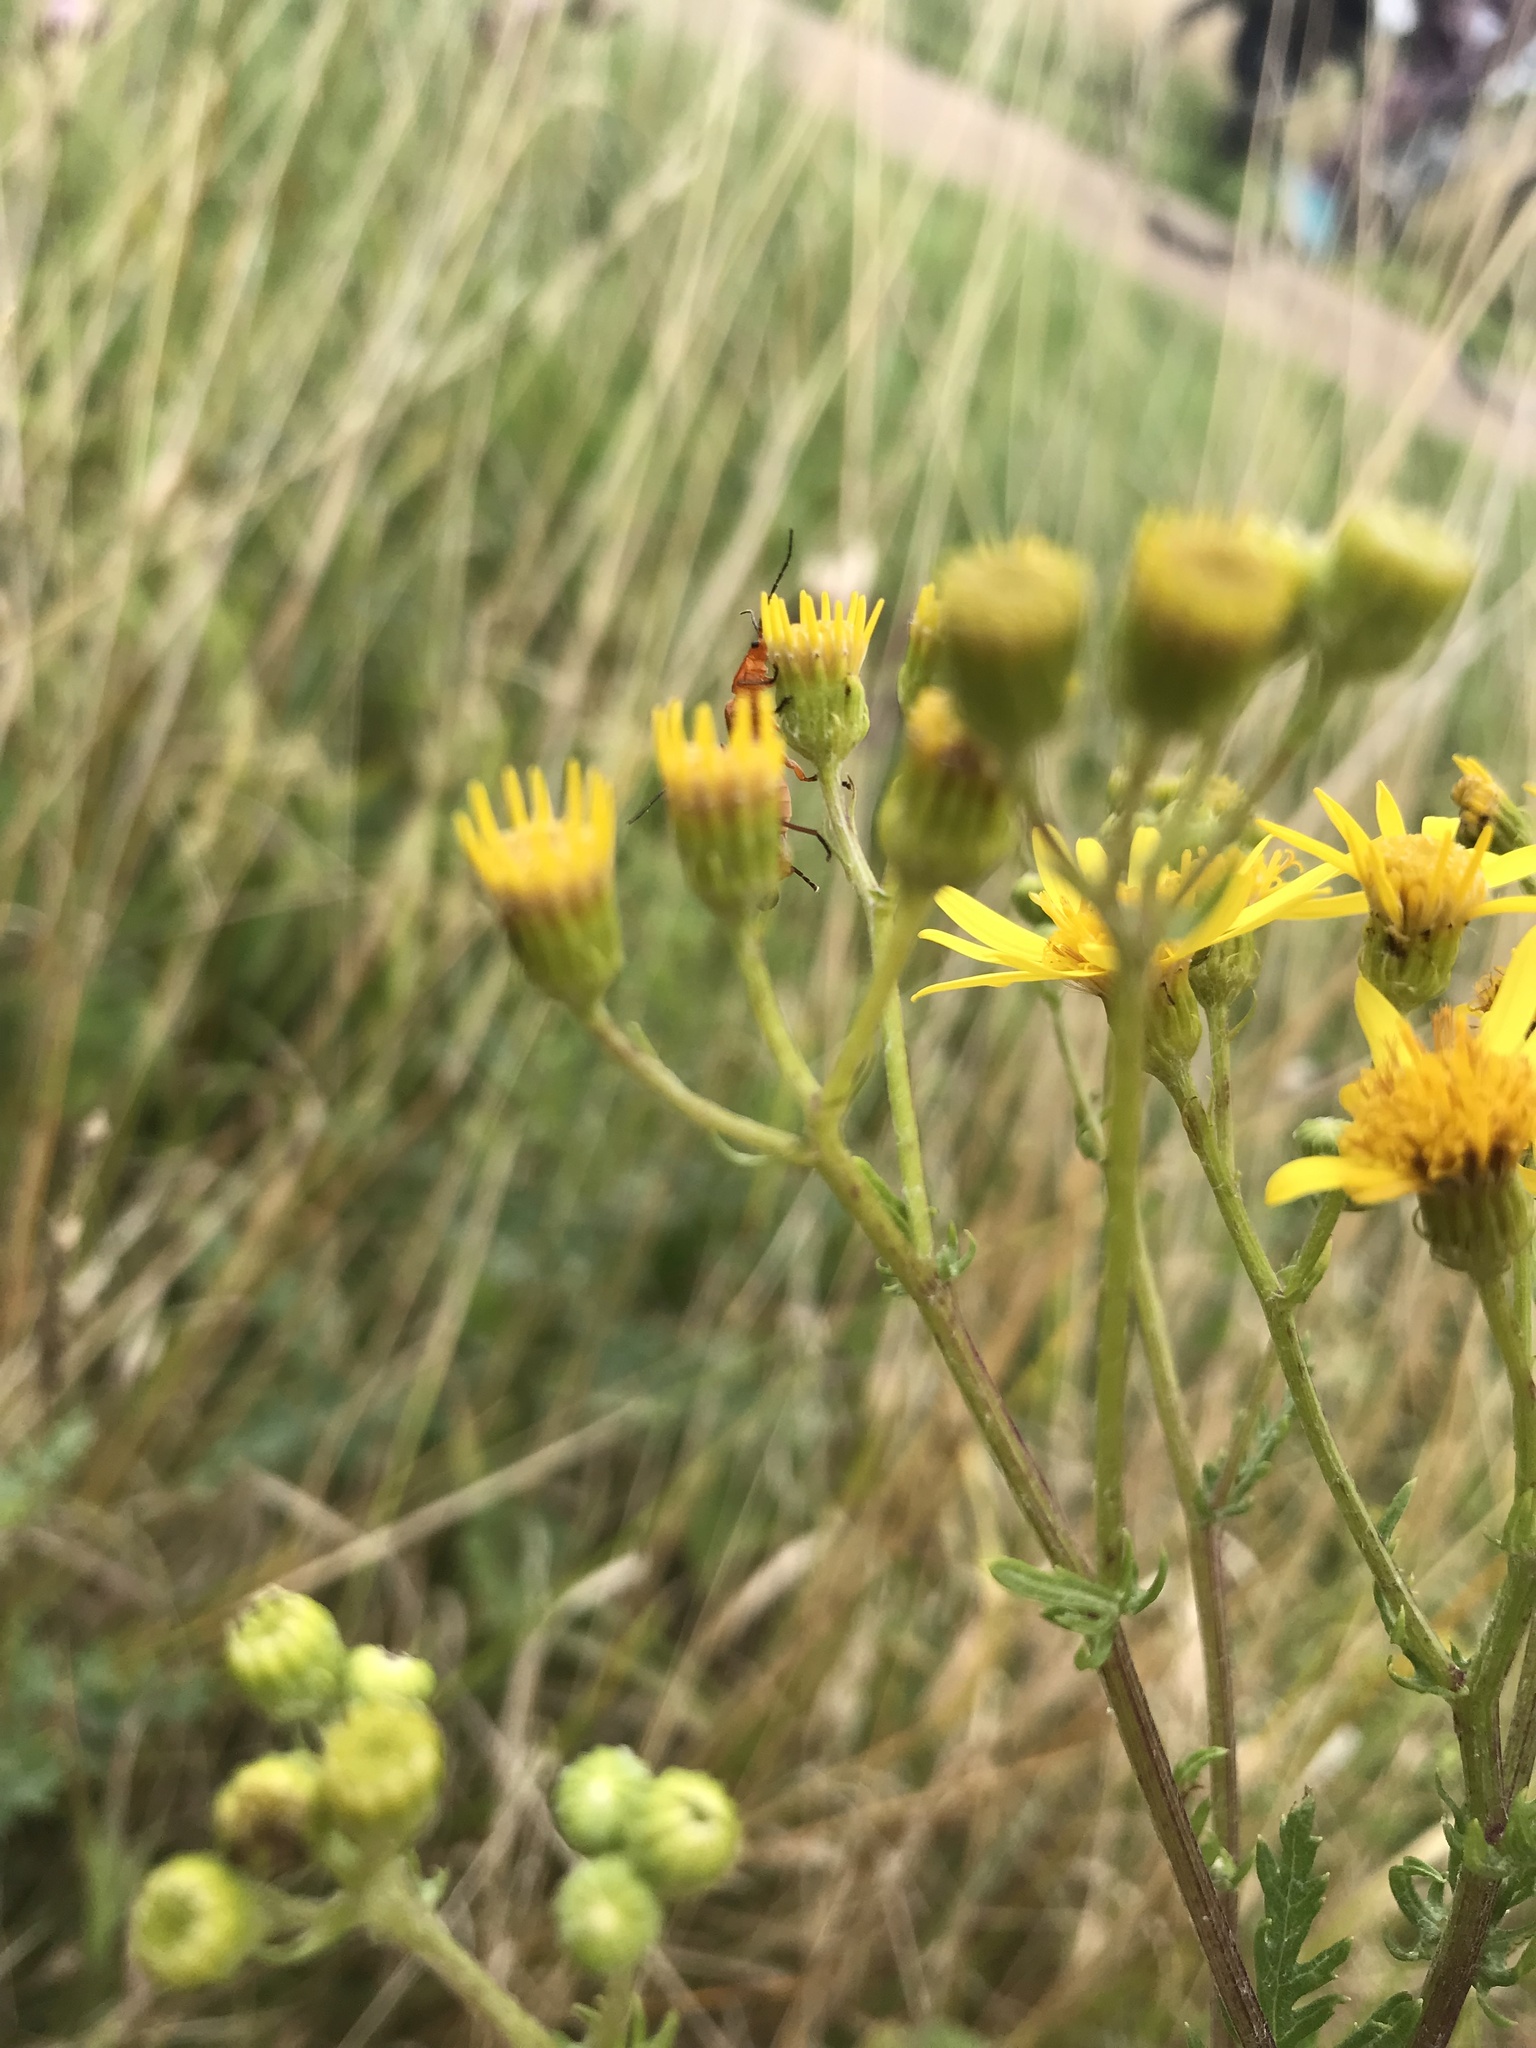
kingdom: Animalia
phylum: Arthropoda
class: Insecta
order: Coleoptera
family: Cantharidae
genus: Rhagonycha
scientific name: Rhagonycha fulva
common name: Common red soldier beetle
